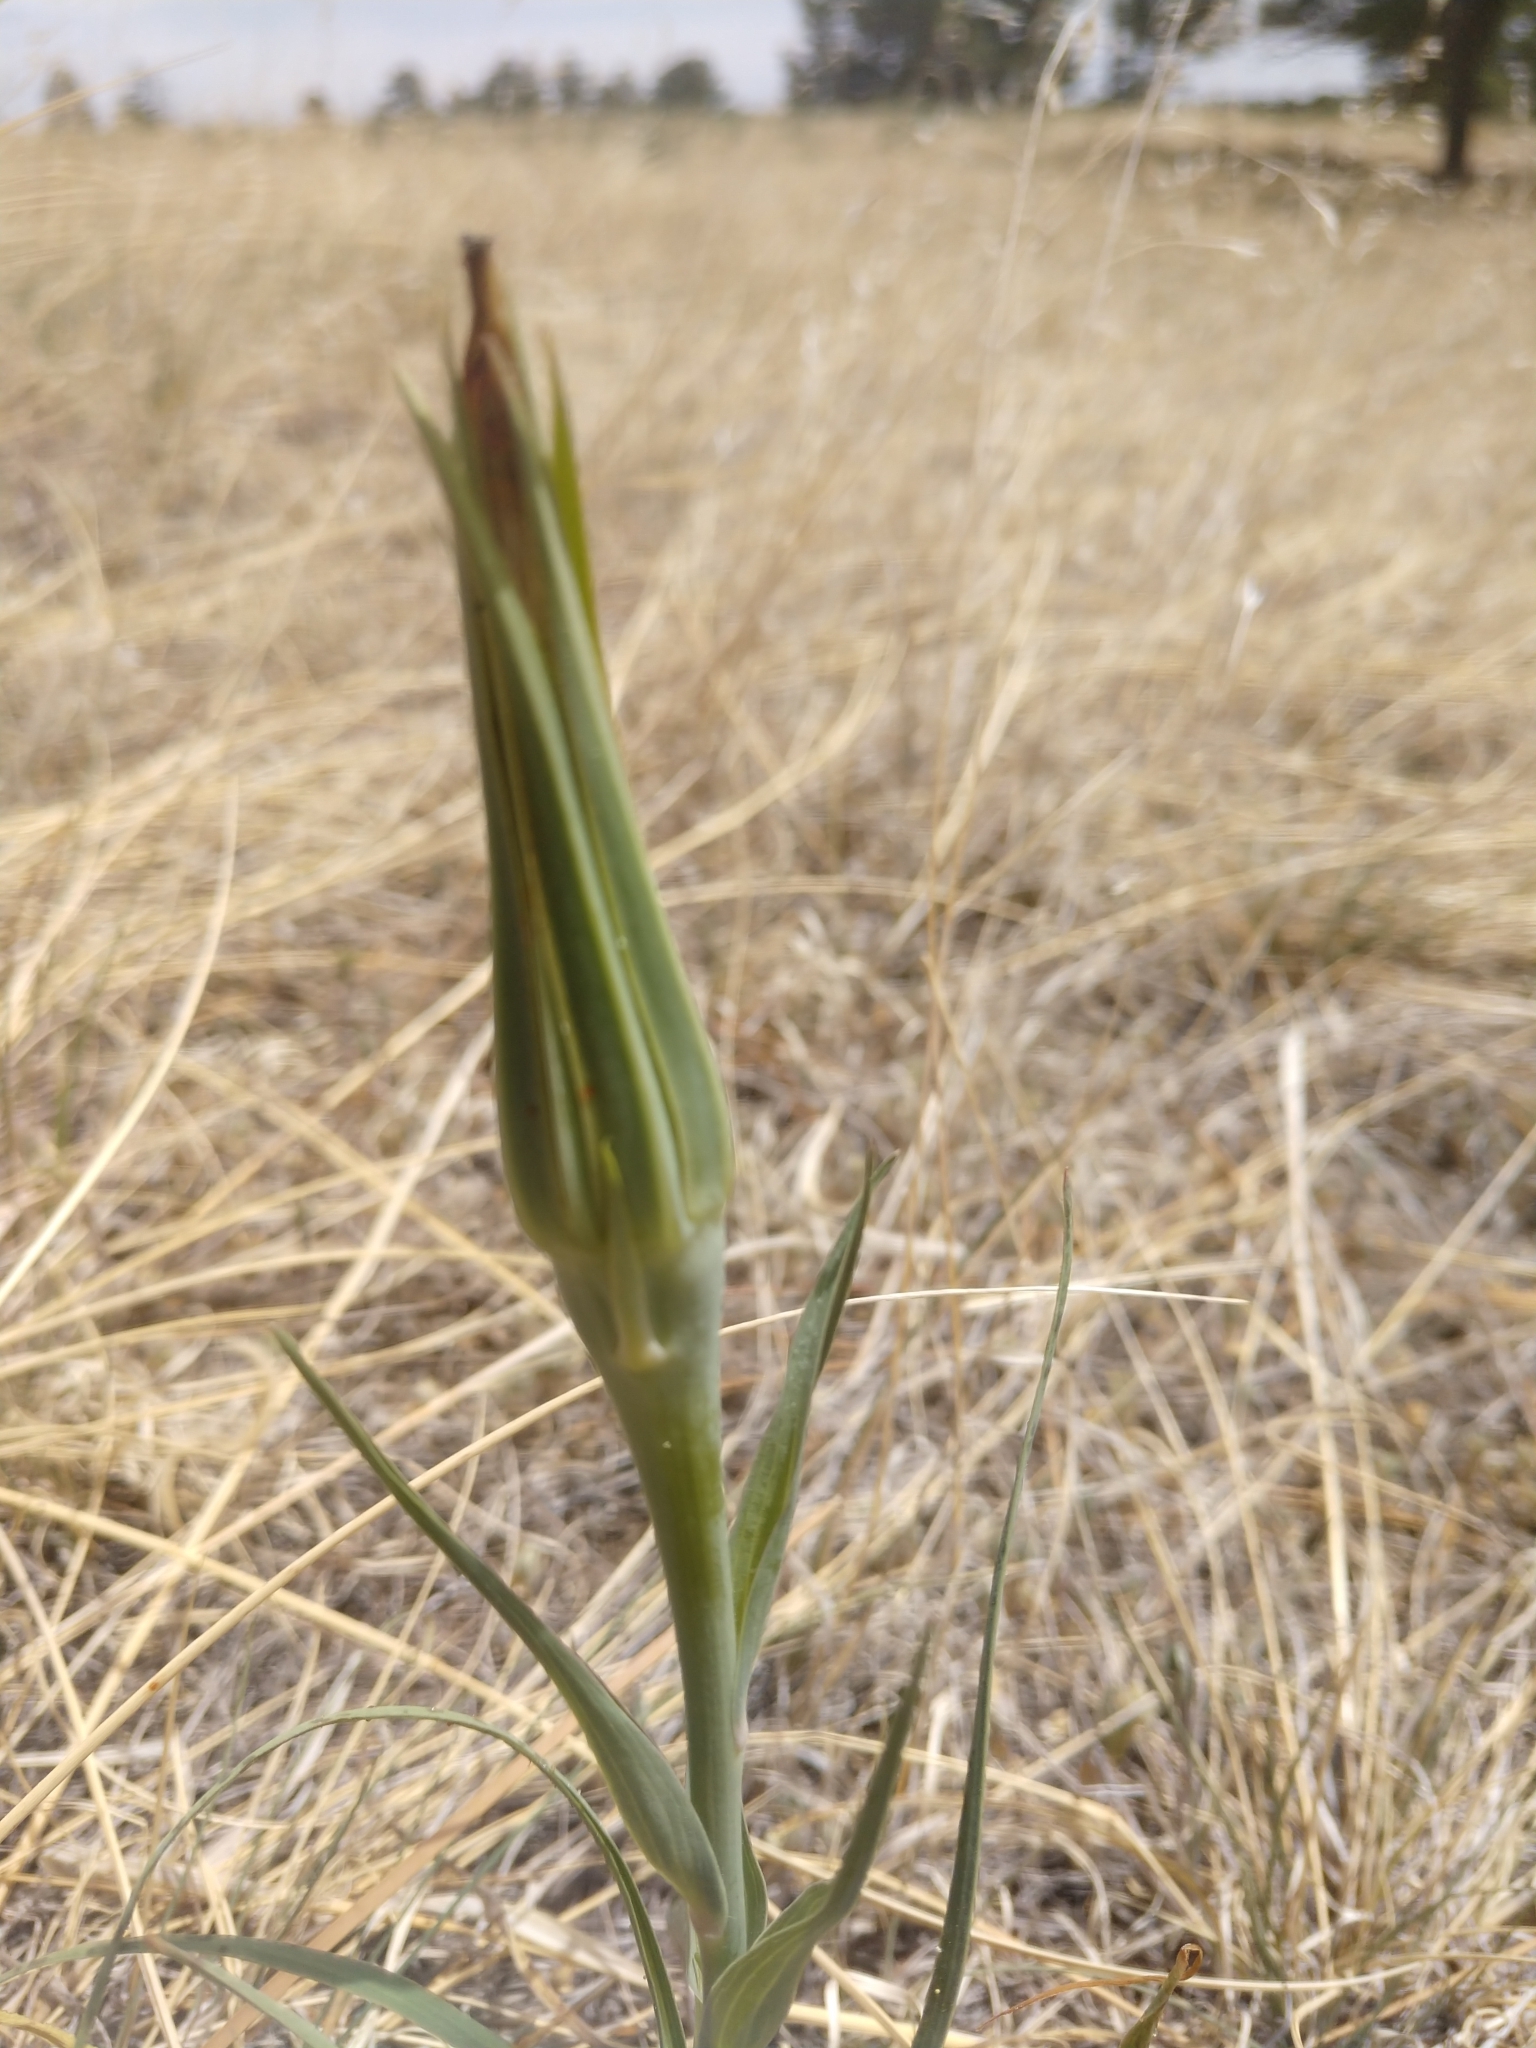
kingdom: Plantae
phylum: Tracheophyta
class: Magnoliopsida
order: Asterales
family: Asteraceae
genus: Tragopogon
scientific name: Tragopogon dubius
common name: Yellow salsify
